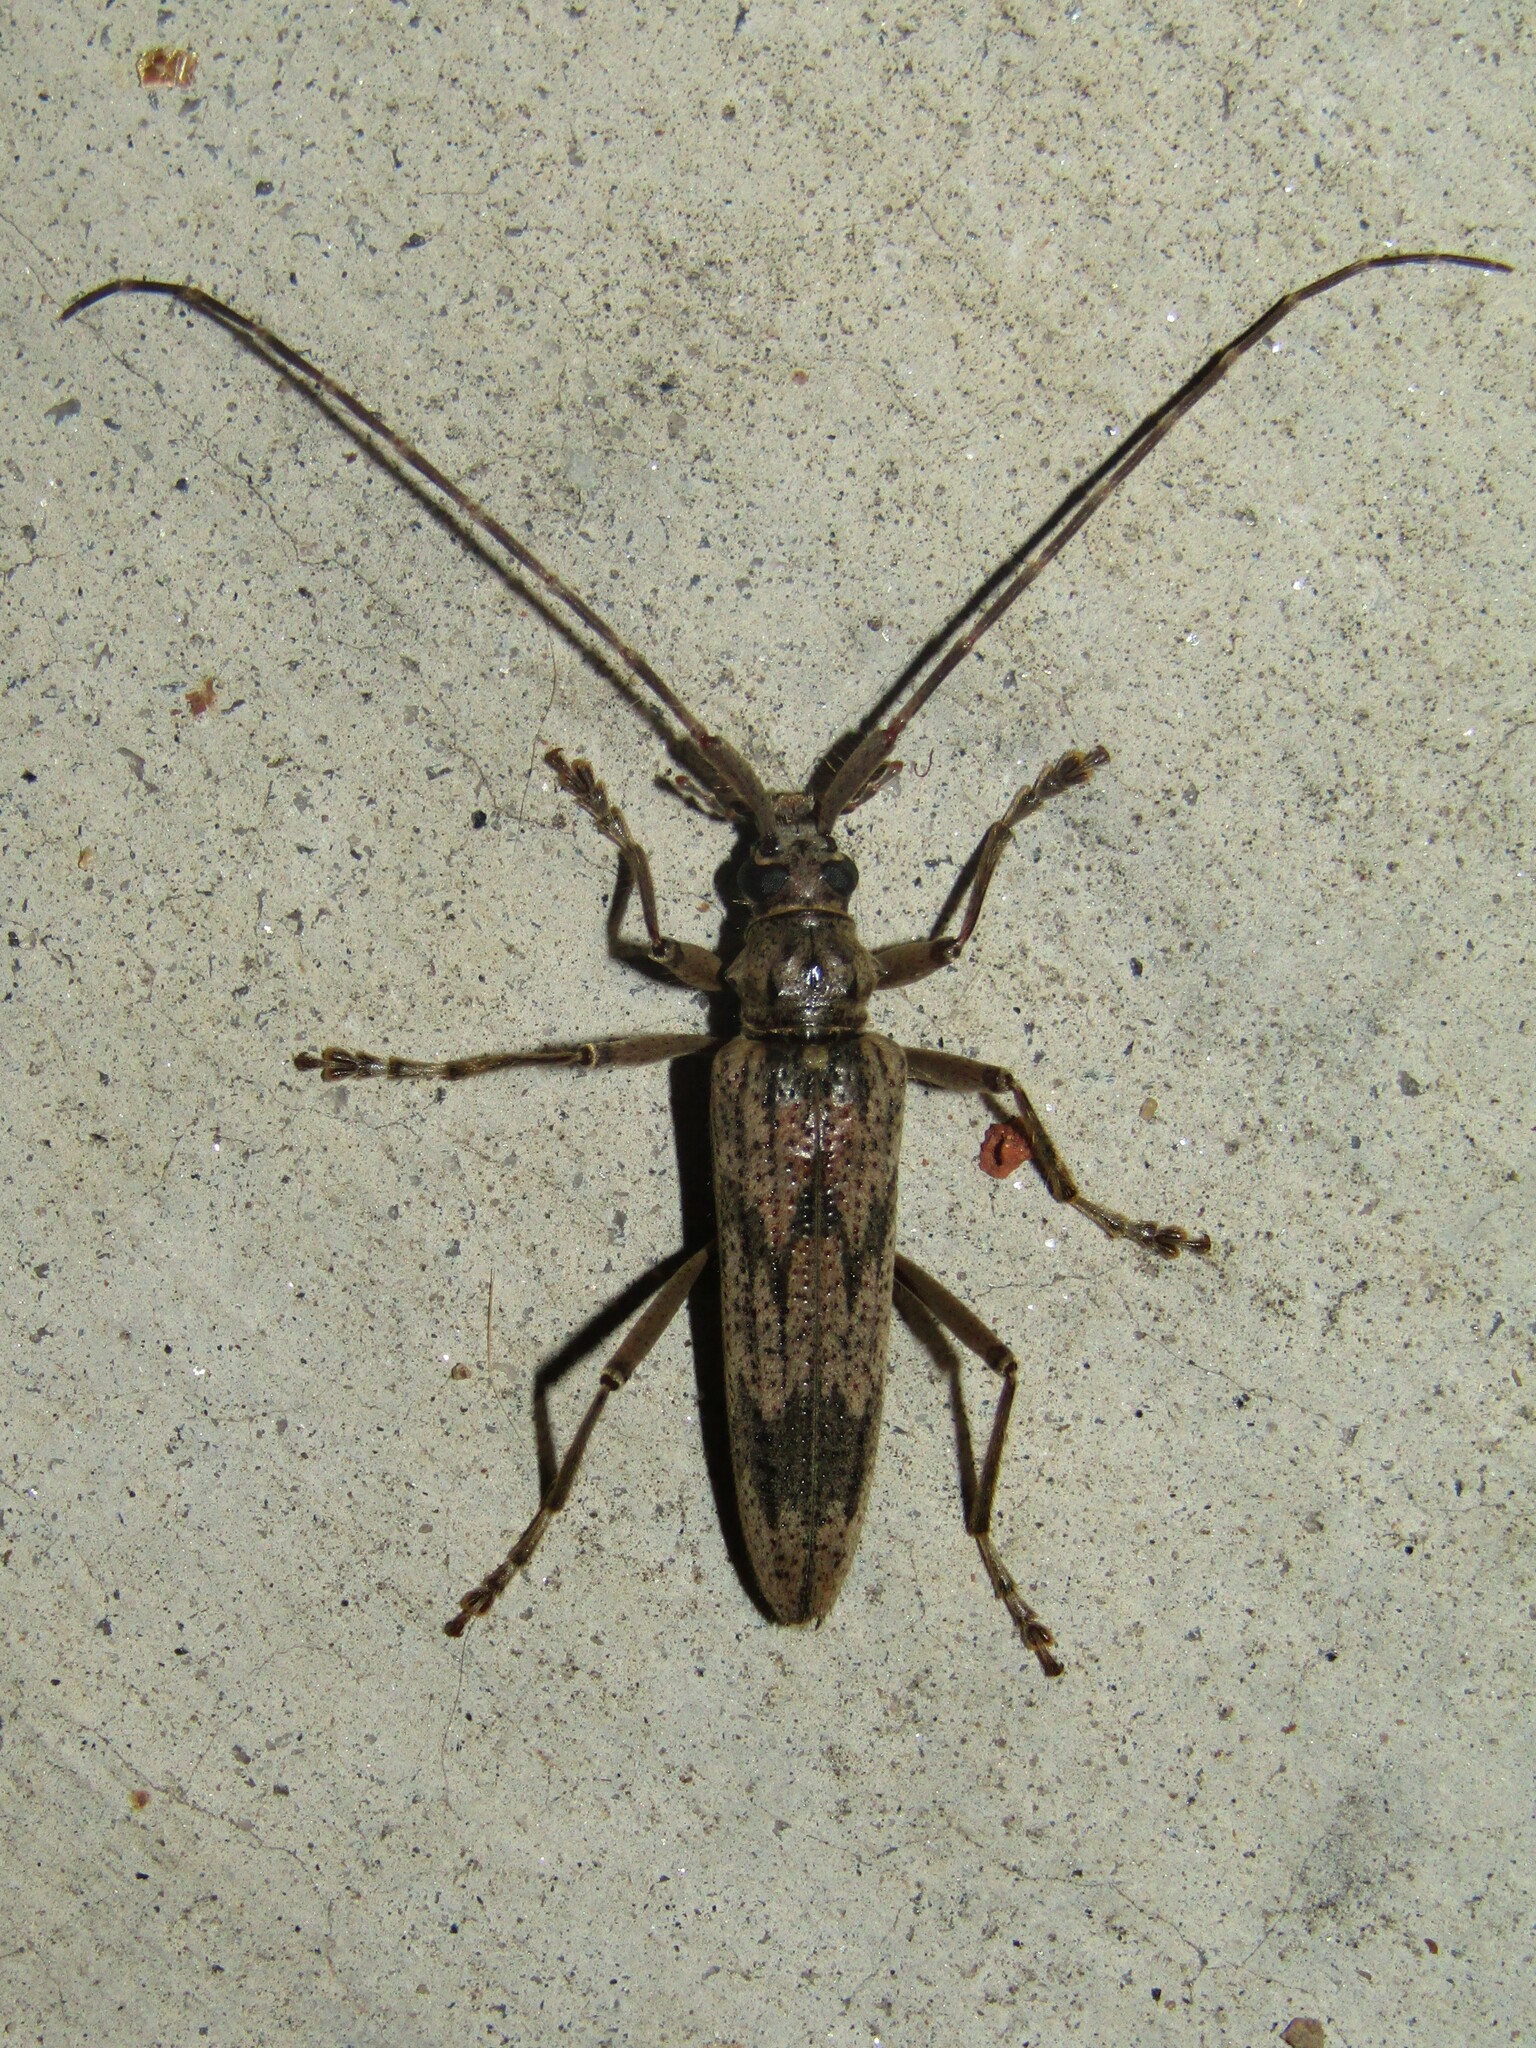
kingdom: Animalia
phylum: Arthropoda
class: Insecta
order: Coleoptera
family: Cerambycidae
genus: Elytrimitatrix
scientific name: Elytrimitatrix undata
